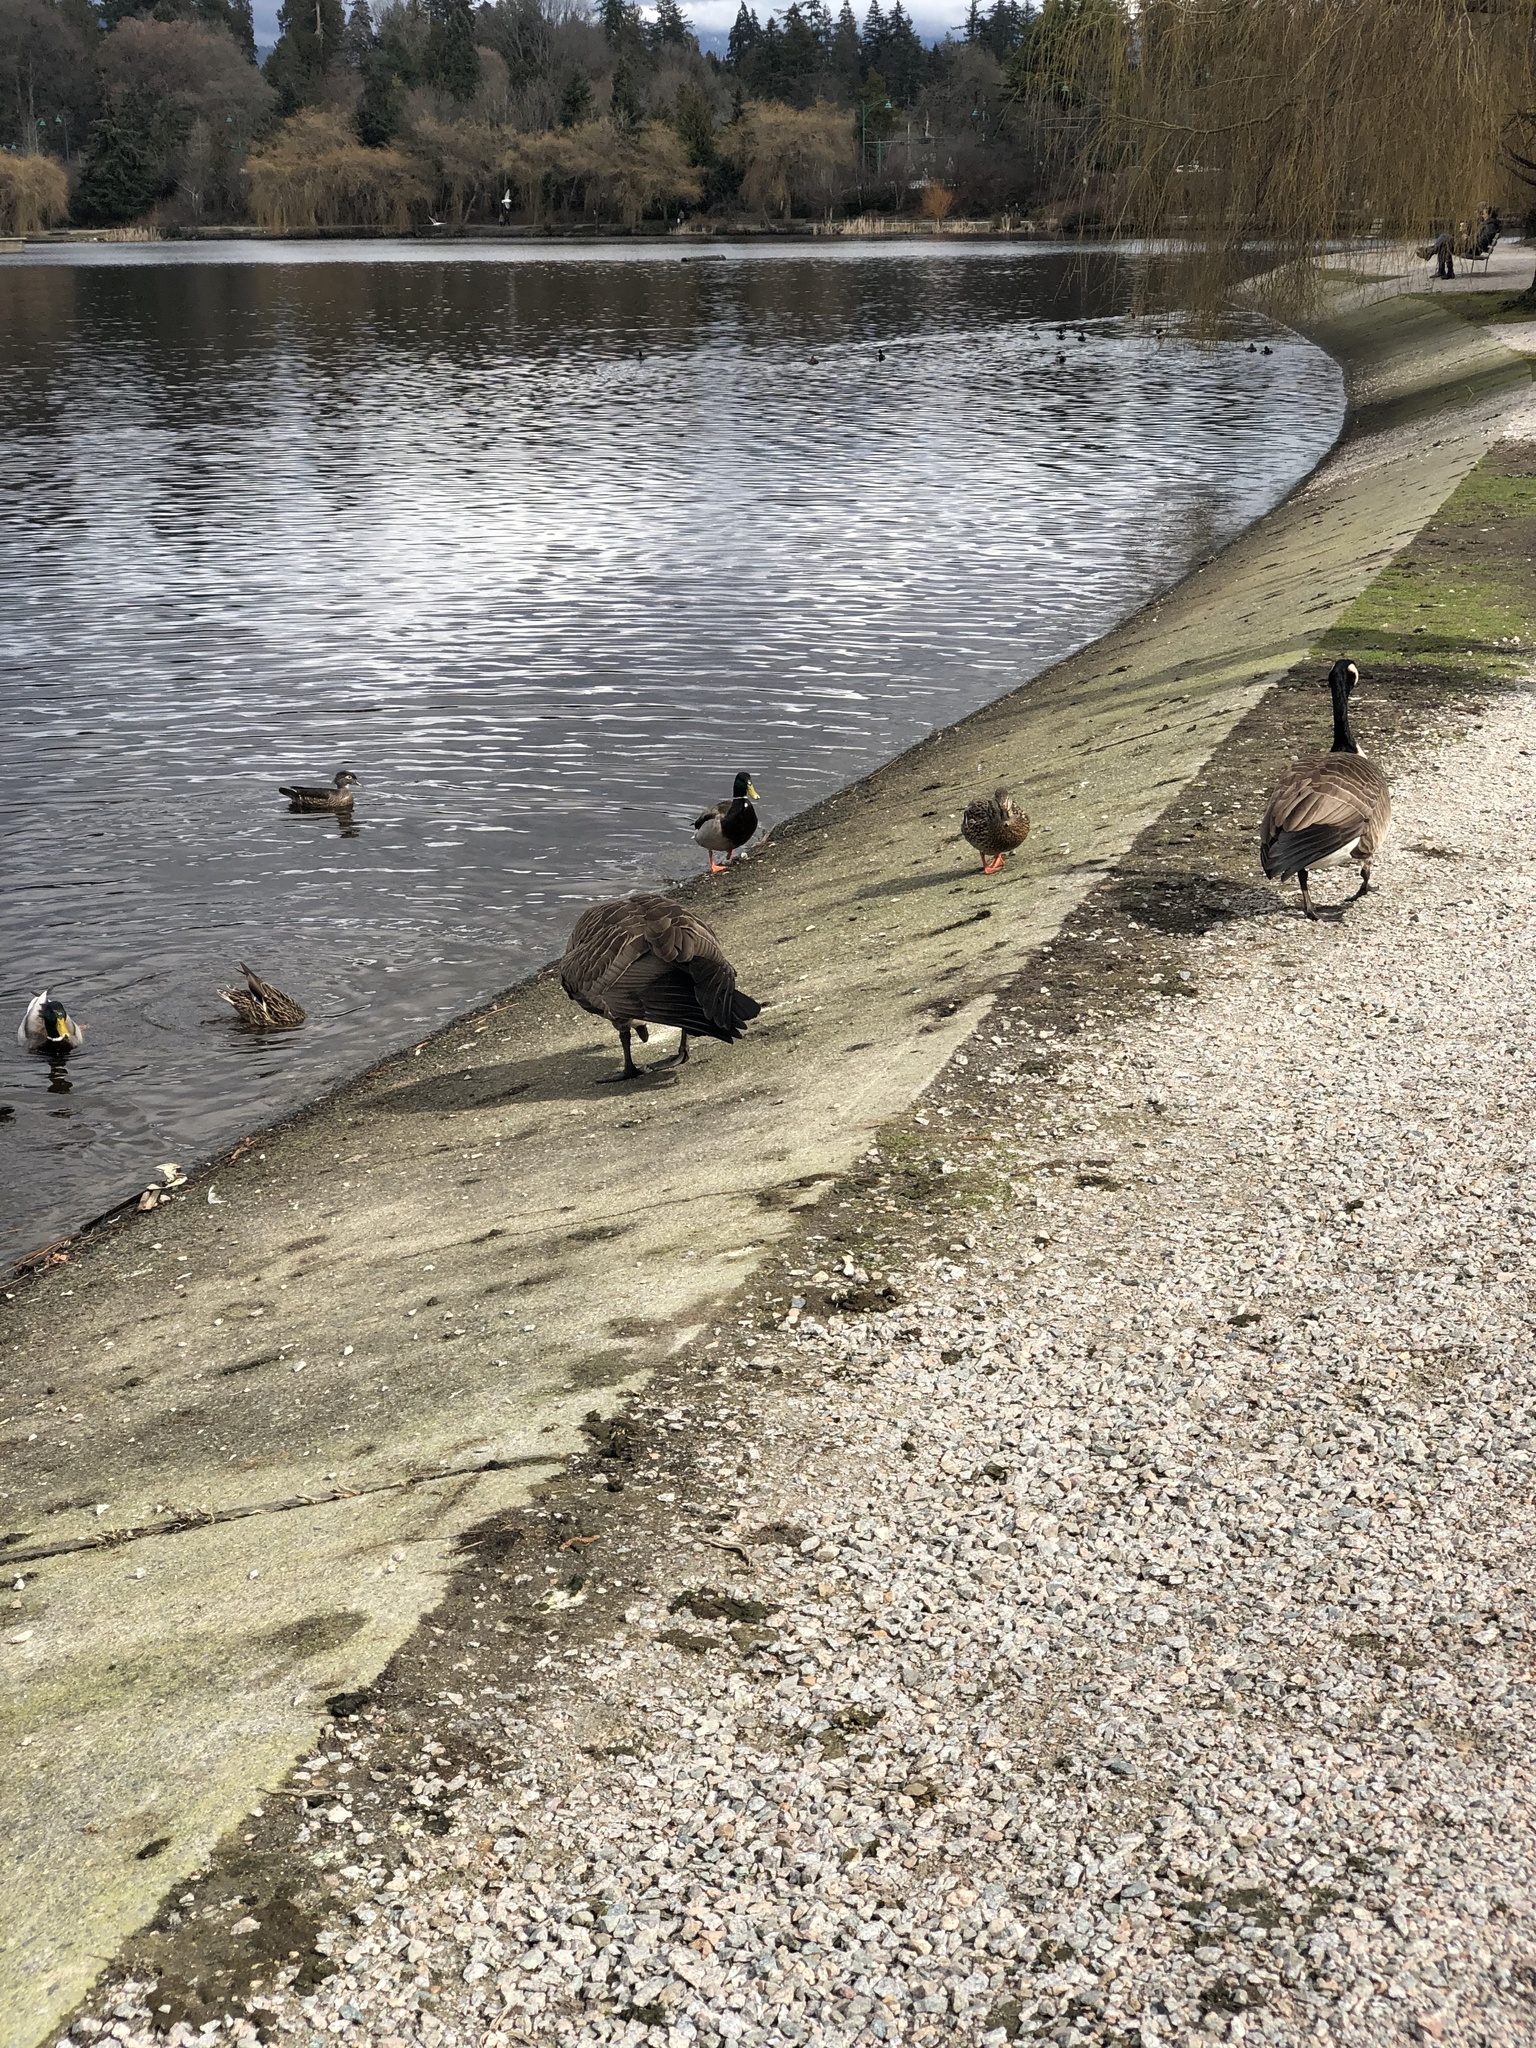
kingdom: Animalia
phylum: Chordata
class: Aves
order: Anseriformes
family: Anatidae
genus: Branta
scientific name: Branta canadensis
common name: Canada goose
